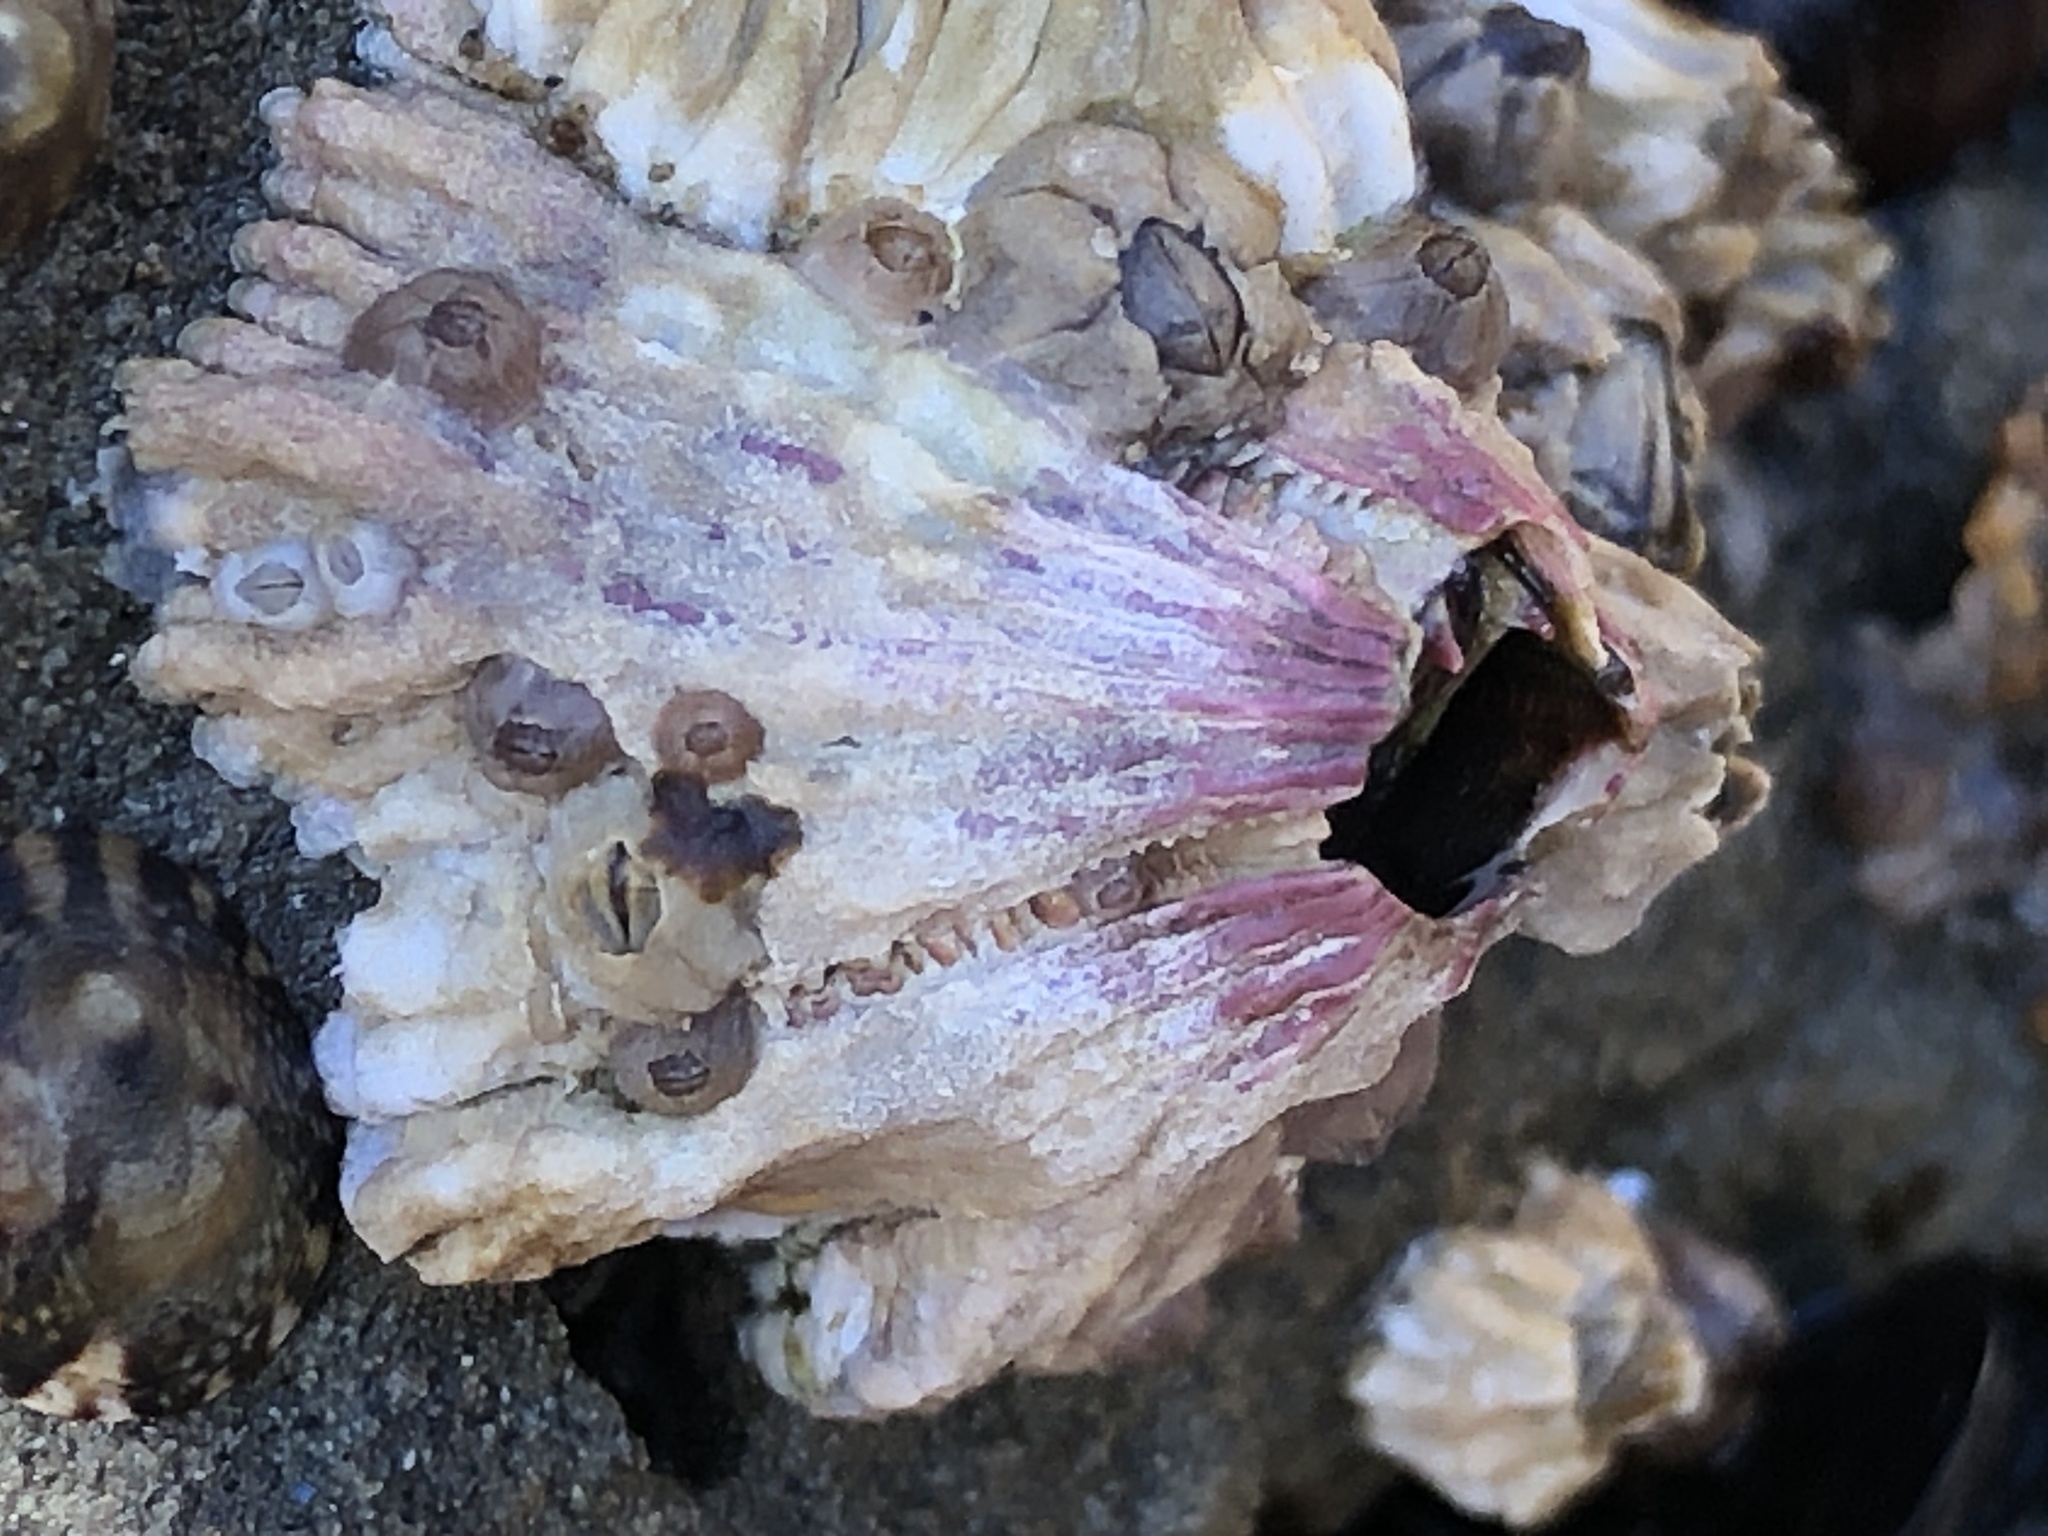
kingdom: Animalia
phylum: Arthropoda
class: Maxillopoda
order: Sessilia
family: Tetraclitidae
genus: Tetraclita
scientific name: Tetraclita rubescens
